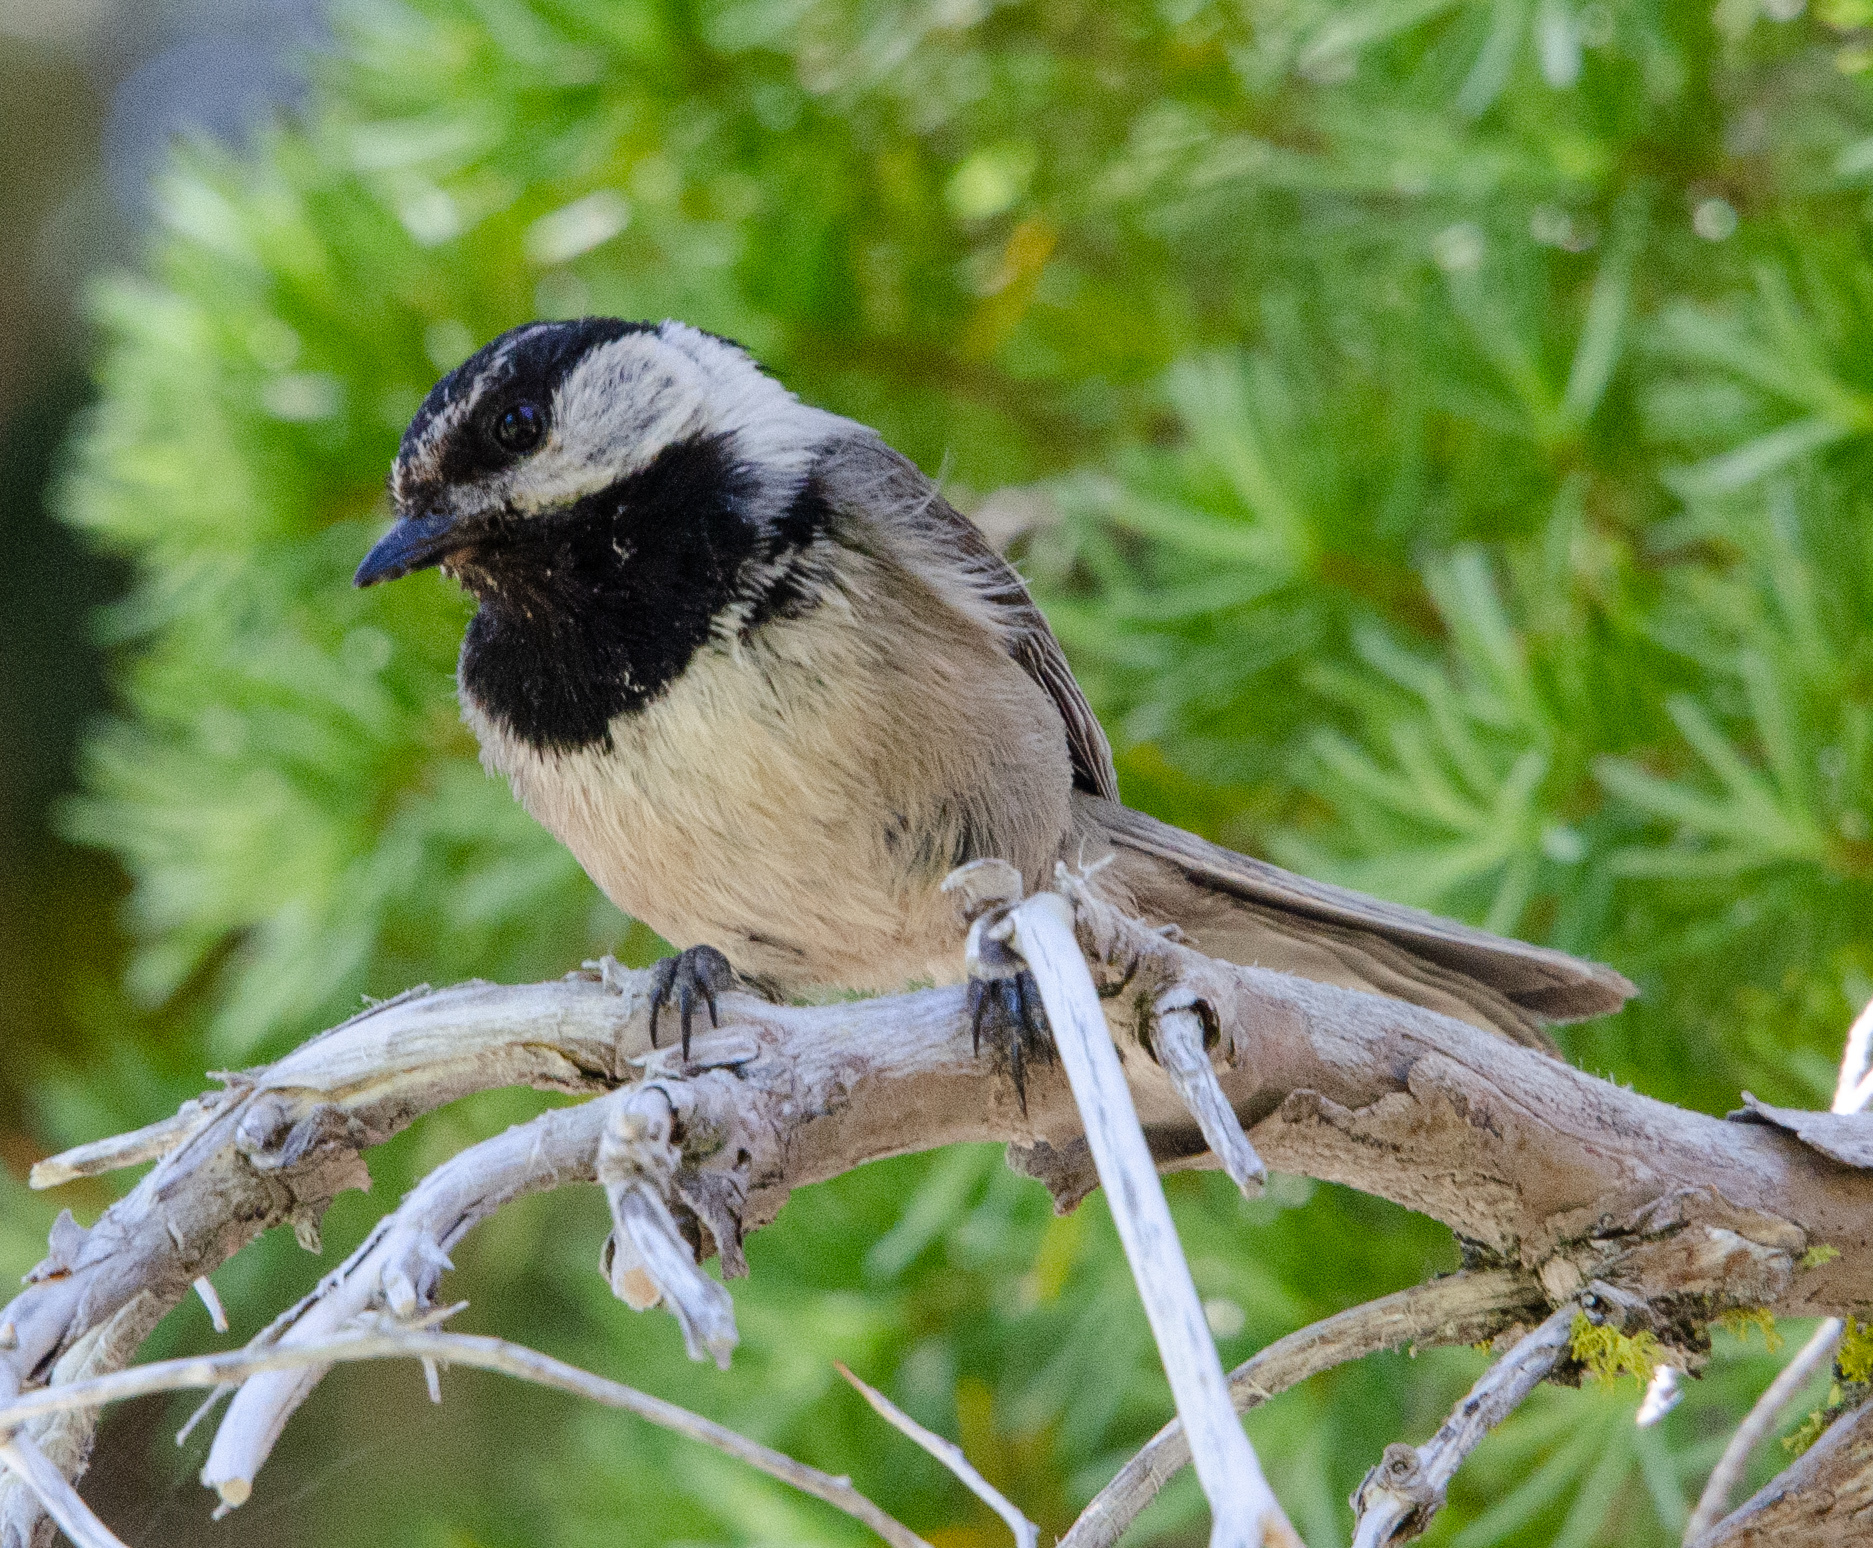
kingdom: Animalia
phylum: Chordata
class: Aves
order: Passeriformes
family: Paridae
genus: Poecile
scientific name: Poecile gambeli
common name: Mountain chickadee
